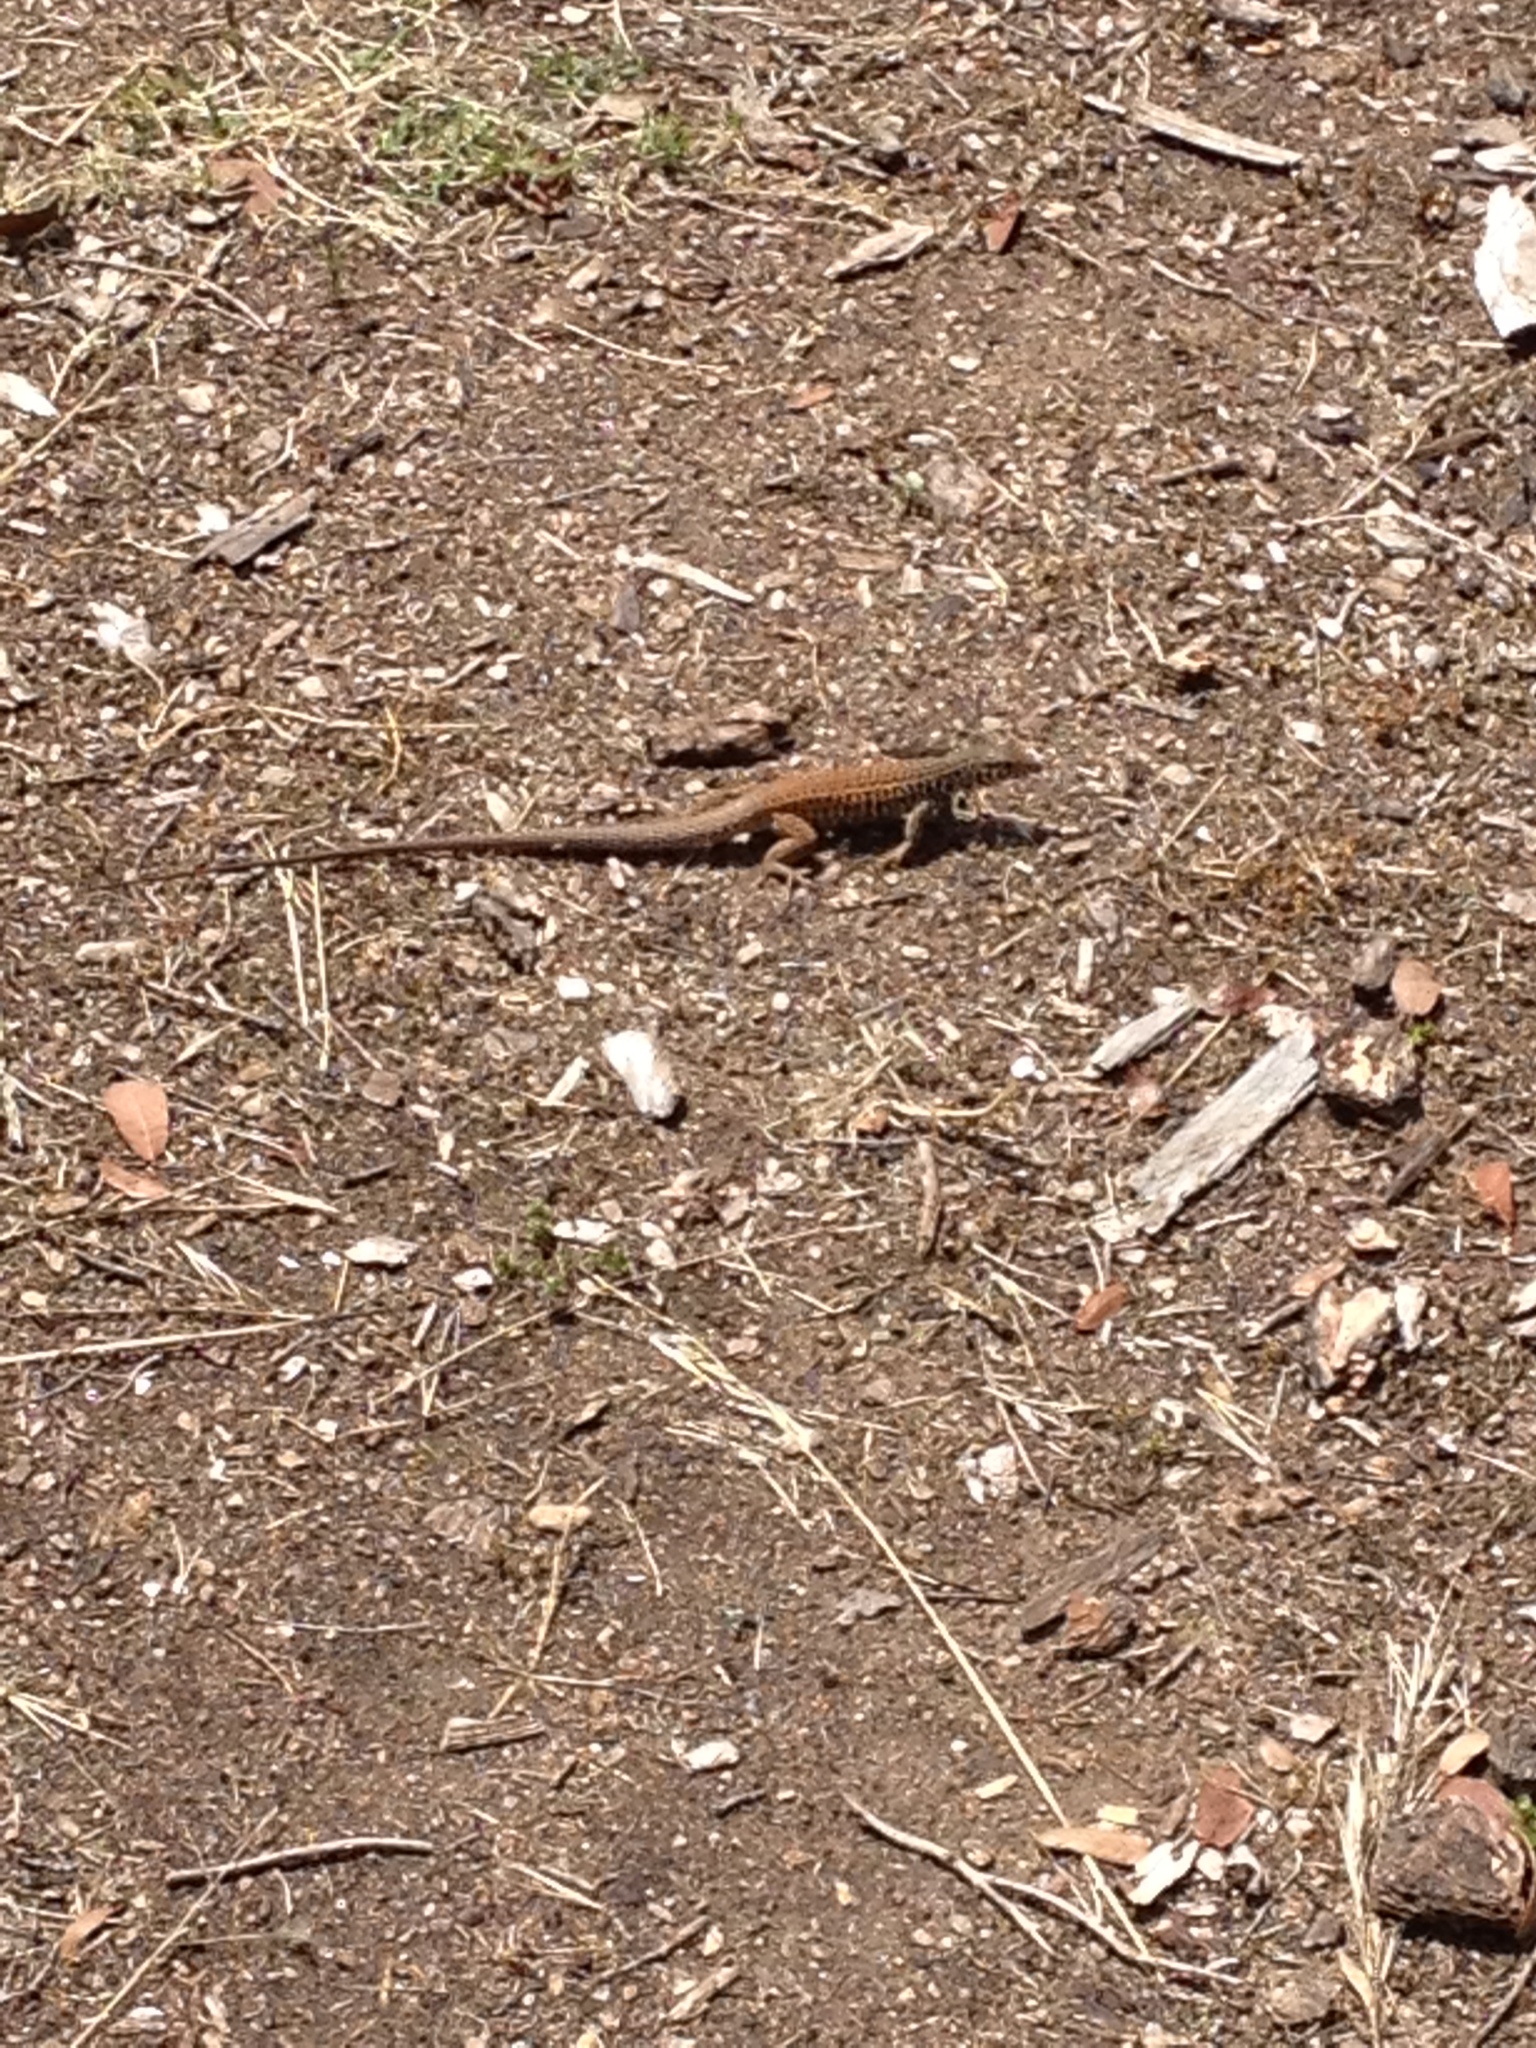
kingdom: Animalia
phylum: Chordata
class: Squamata
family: Teiidae
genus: Aspidoscelis
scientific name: Aspidoscelis tigris
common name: Tiger whiptail
